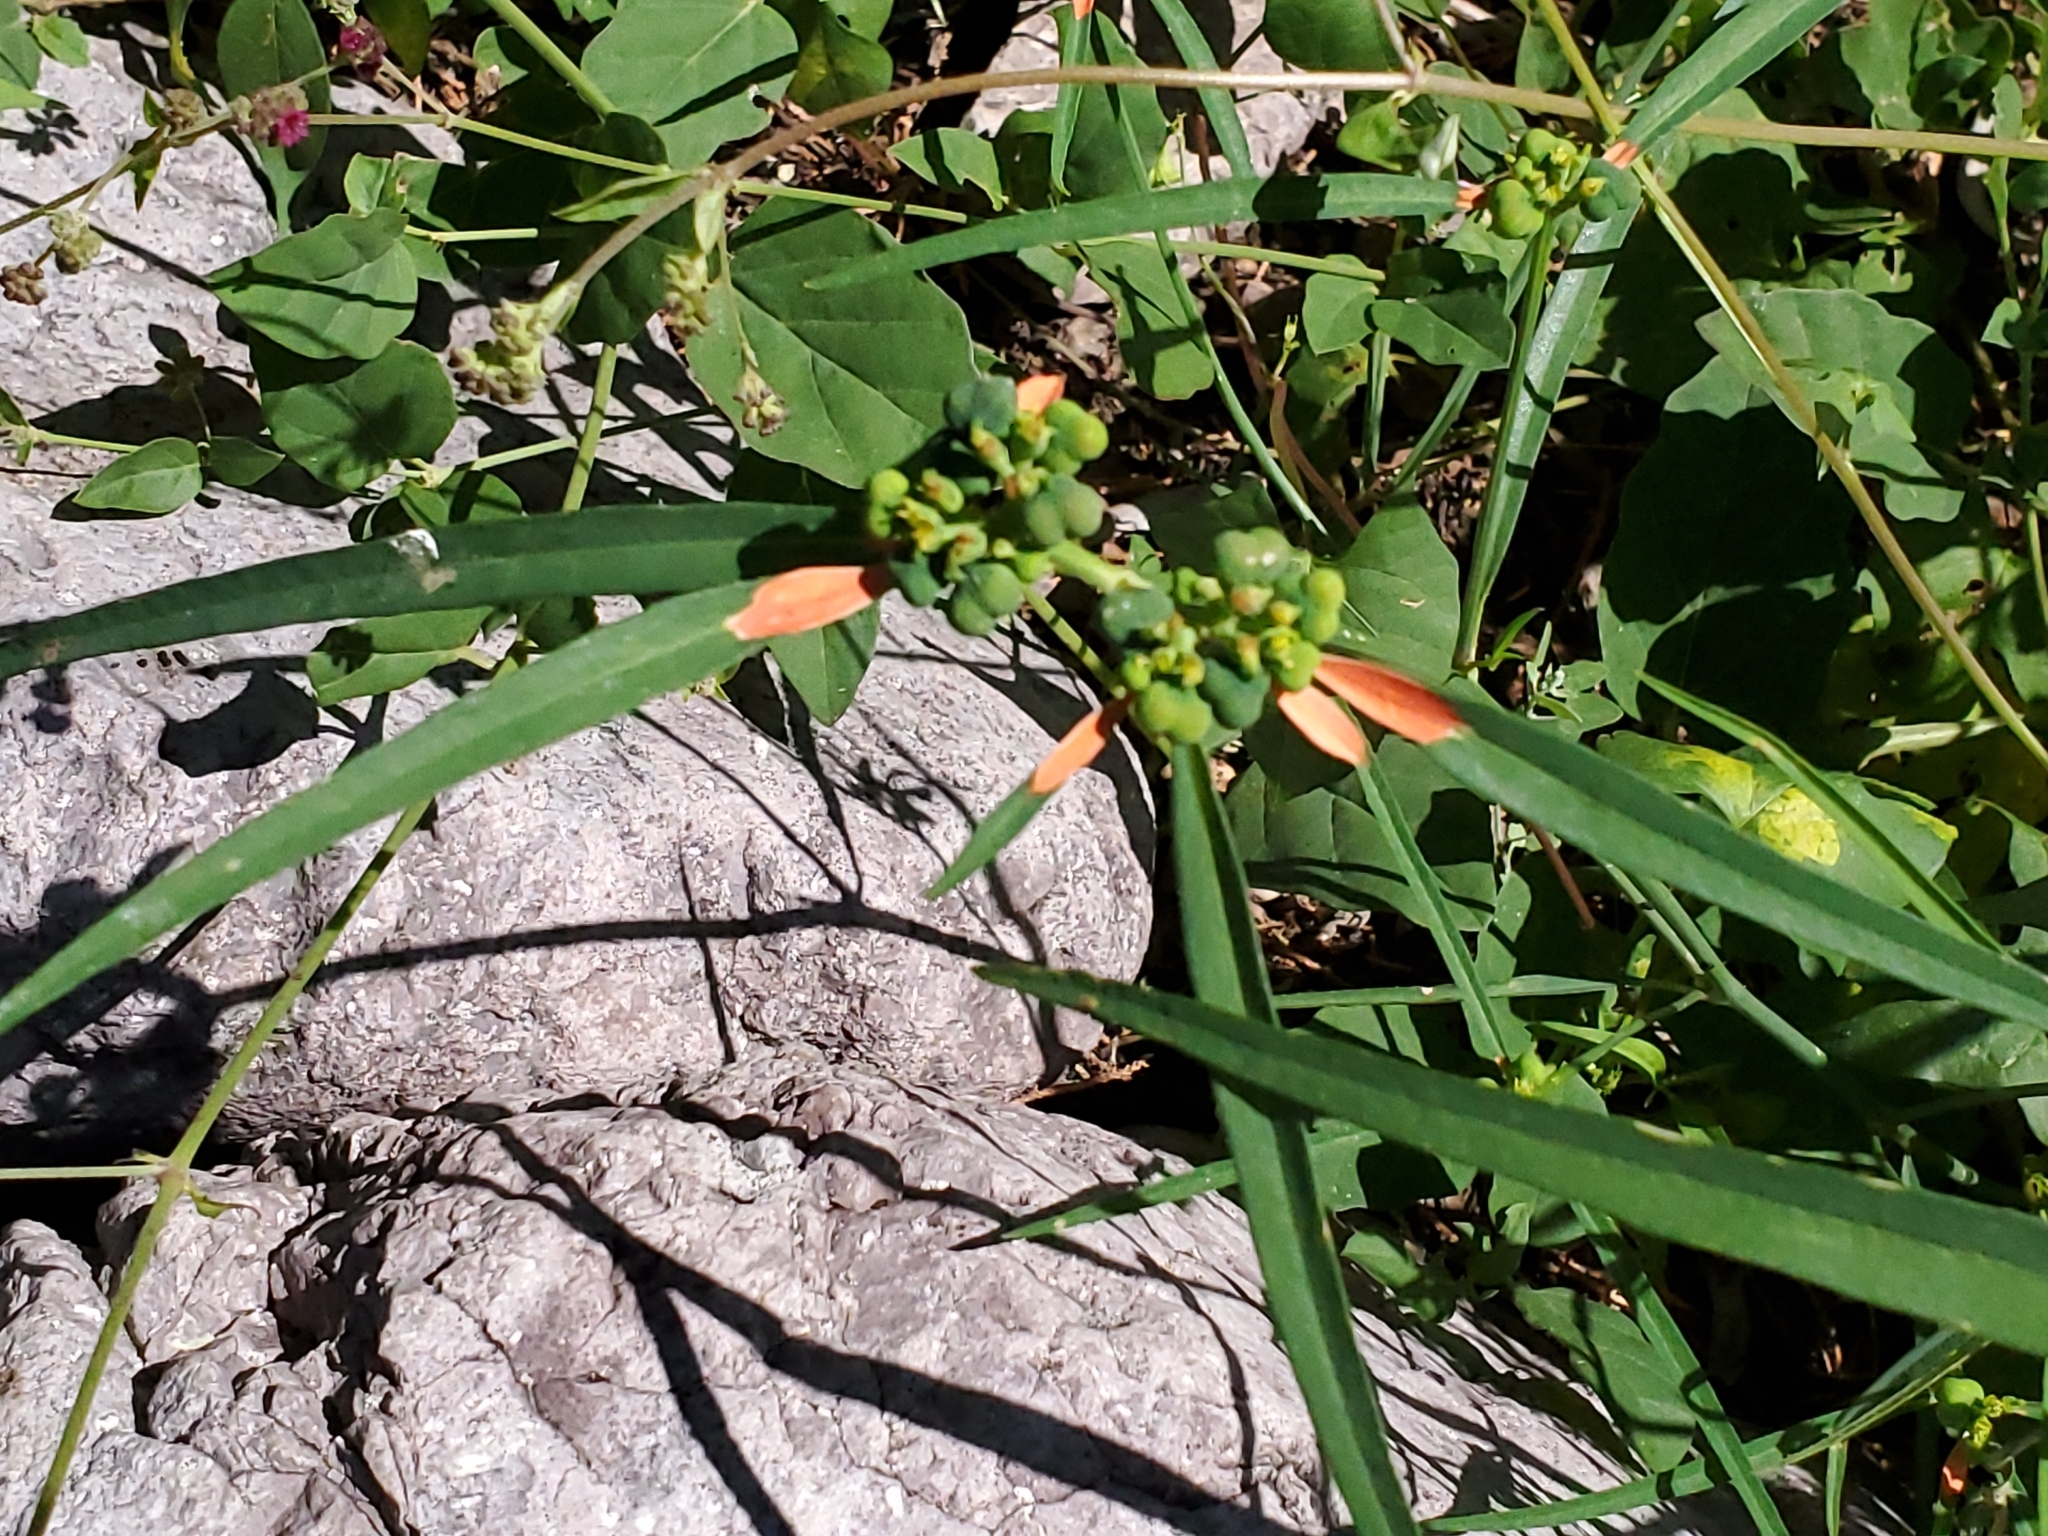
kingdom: Plantae
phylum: Tracheophyta
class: Magnoliopsida
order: Malpighiales
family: Euphorbiaceae
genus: Euphorbia
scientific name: Euphorbia heterophylla
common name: Mexican fireplant
